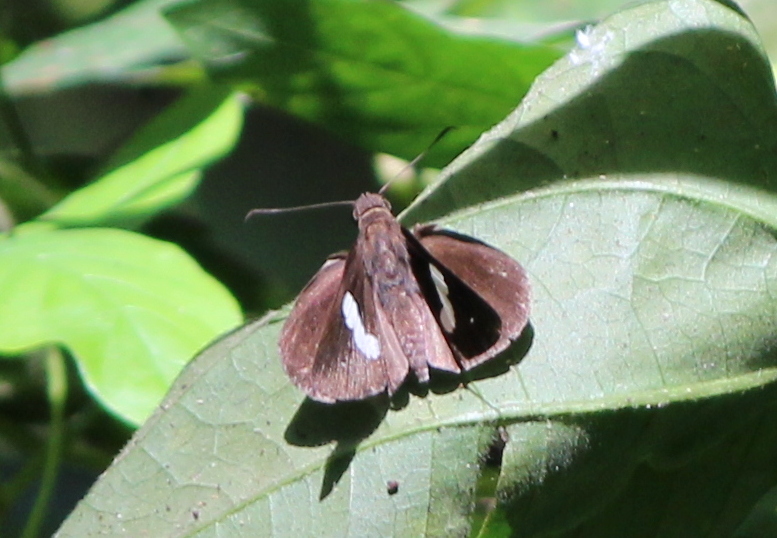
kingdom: Animalia
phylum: Arthropoda
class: Insecta
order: Lepidoptera
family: Hesperiidae
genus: Notocrypta
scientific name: Notocrypta paralysos
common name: Common banded demon
